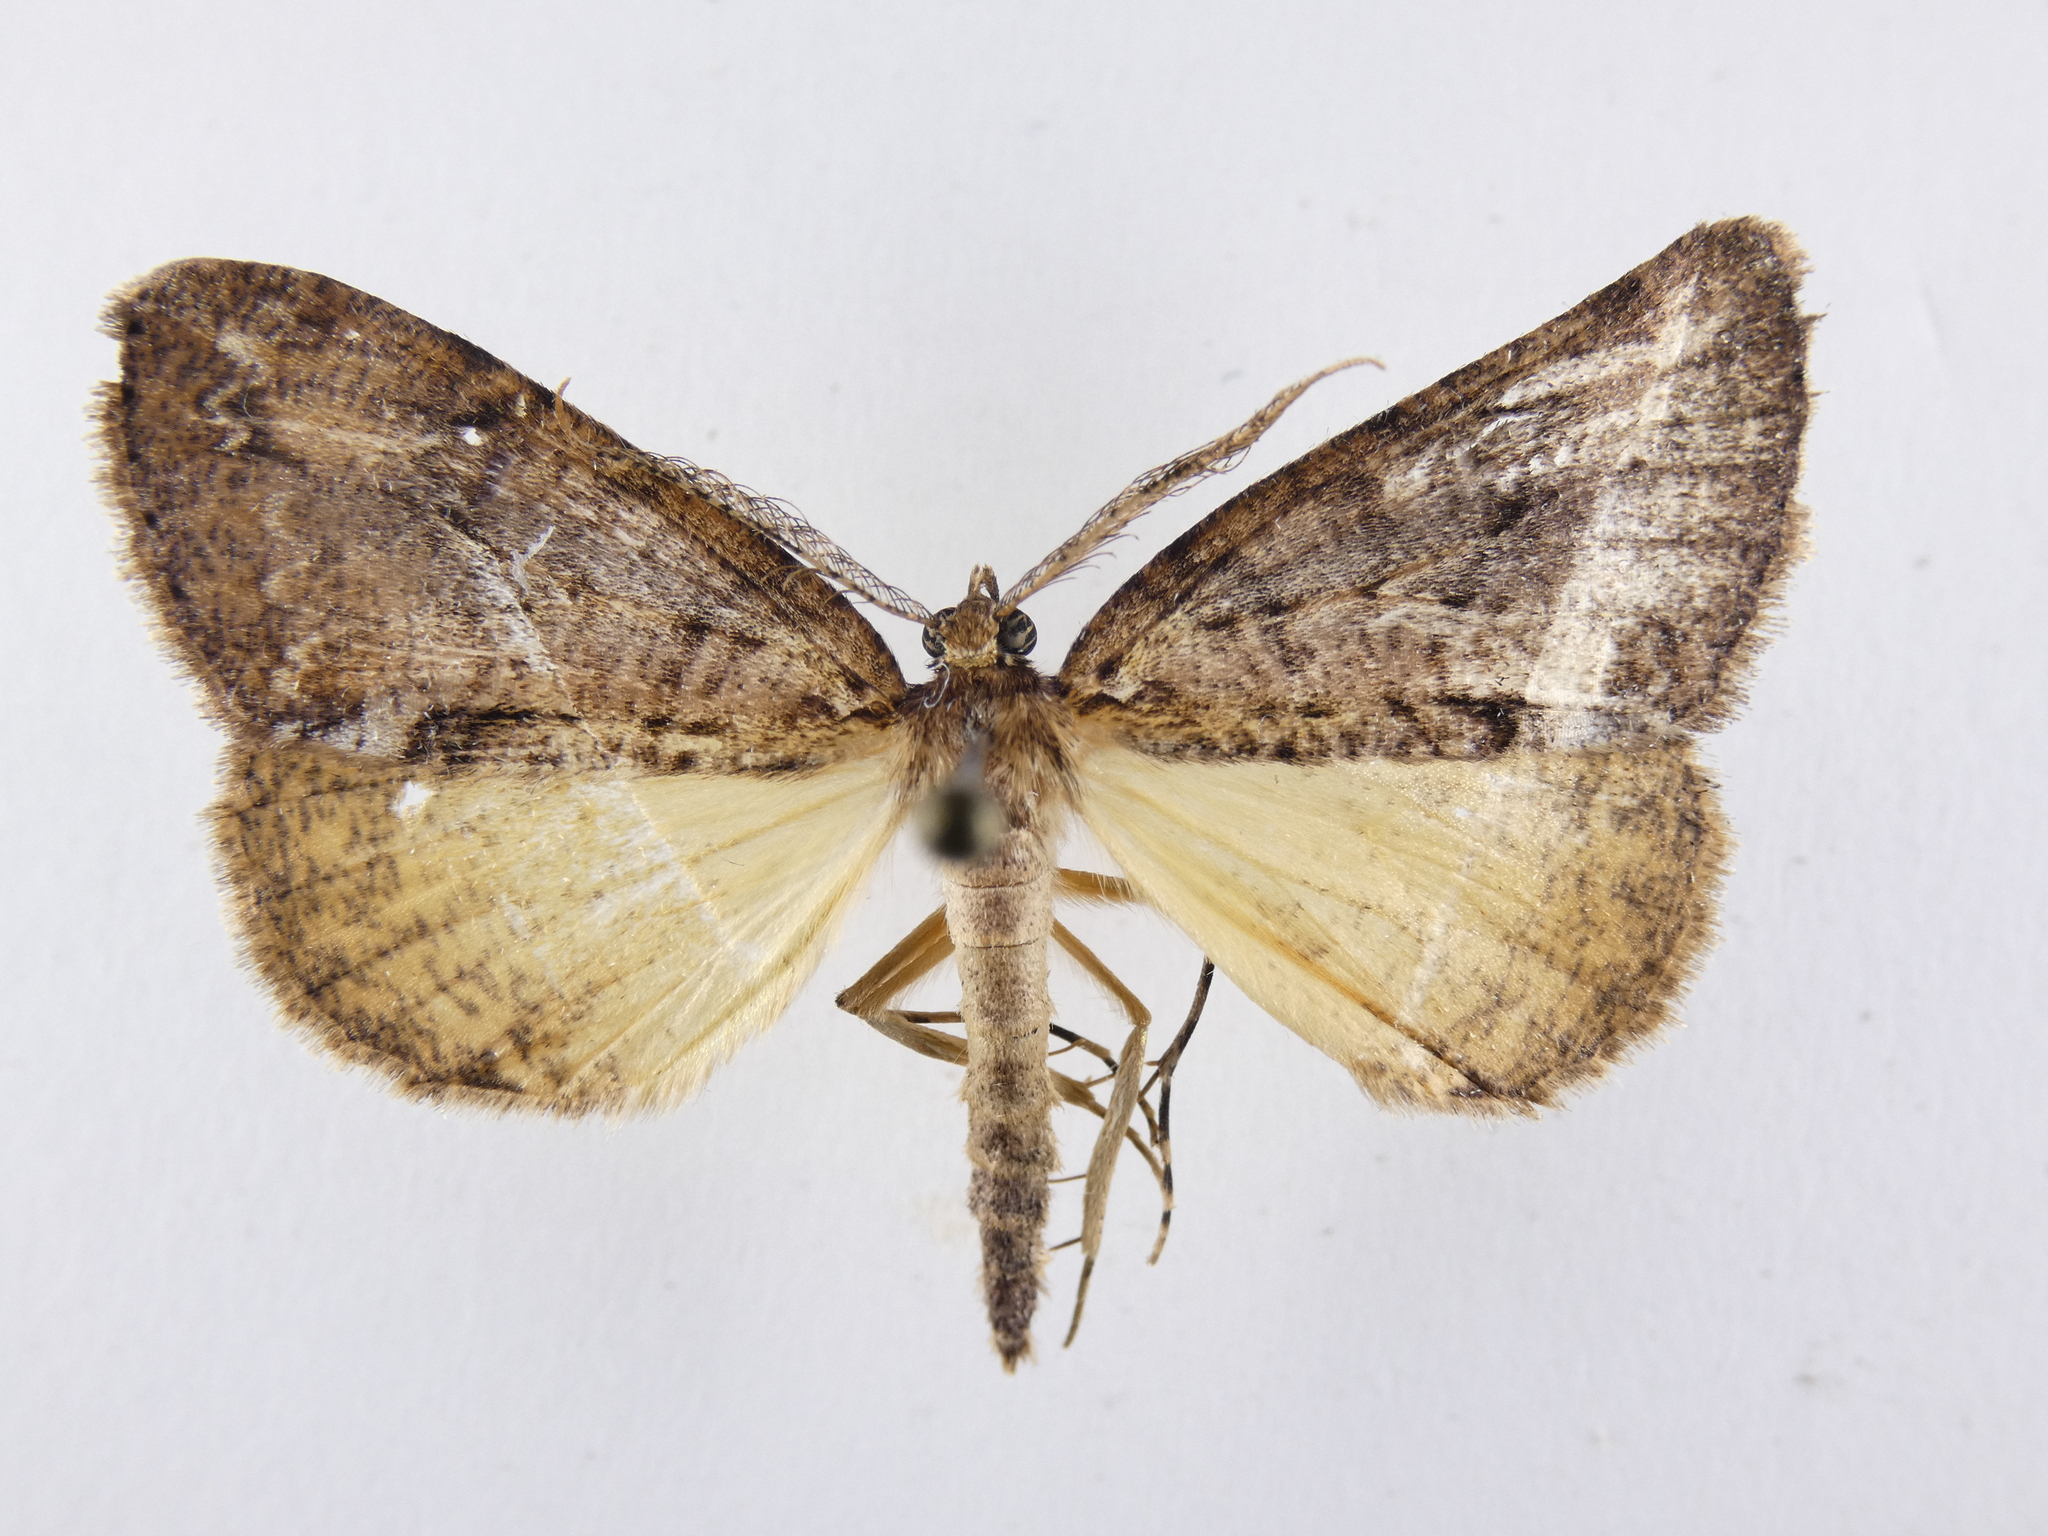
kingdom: Animalia
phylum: Arthropoda
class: Insecta
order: Lepidoptera
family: Geometridae
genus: Pseudocoremia
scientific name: Pseudocoremia suavis
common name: Common forest looper
